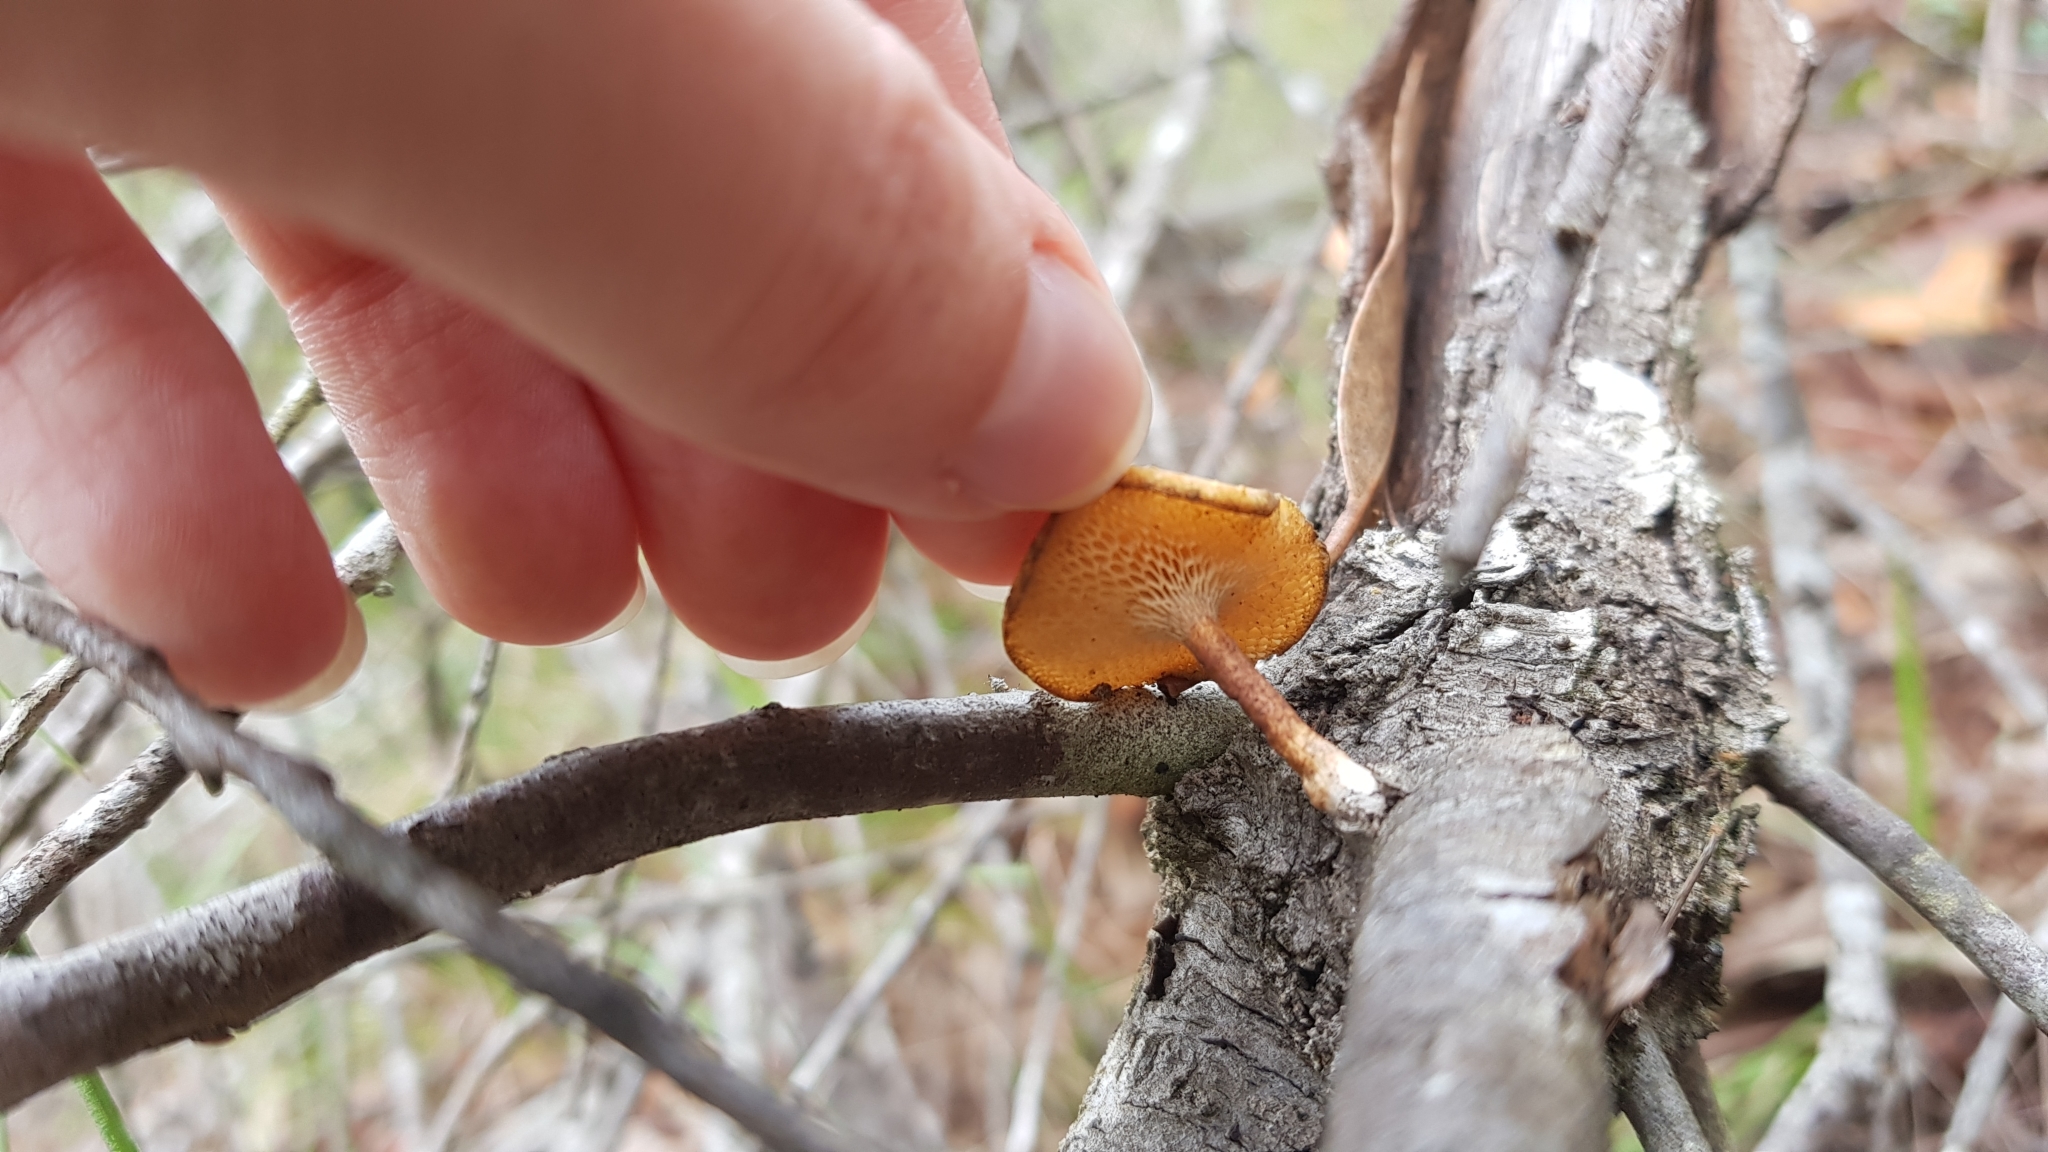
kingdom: Fungi
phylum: Basidiomycota
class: Agaricomycetes
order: Polyporales
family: Polyporaceae
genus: Lentinus
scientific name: Lentinus arcularius
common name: Spring polypore
